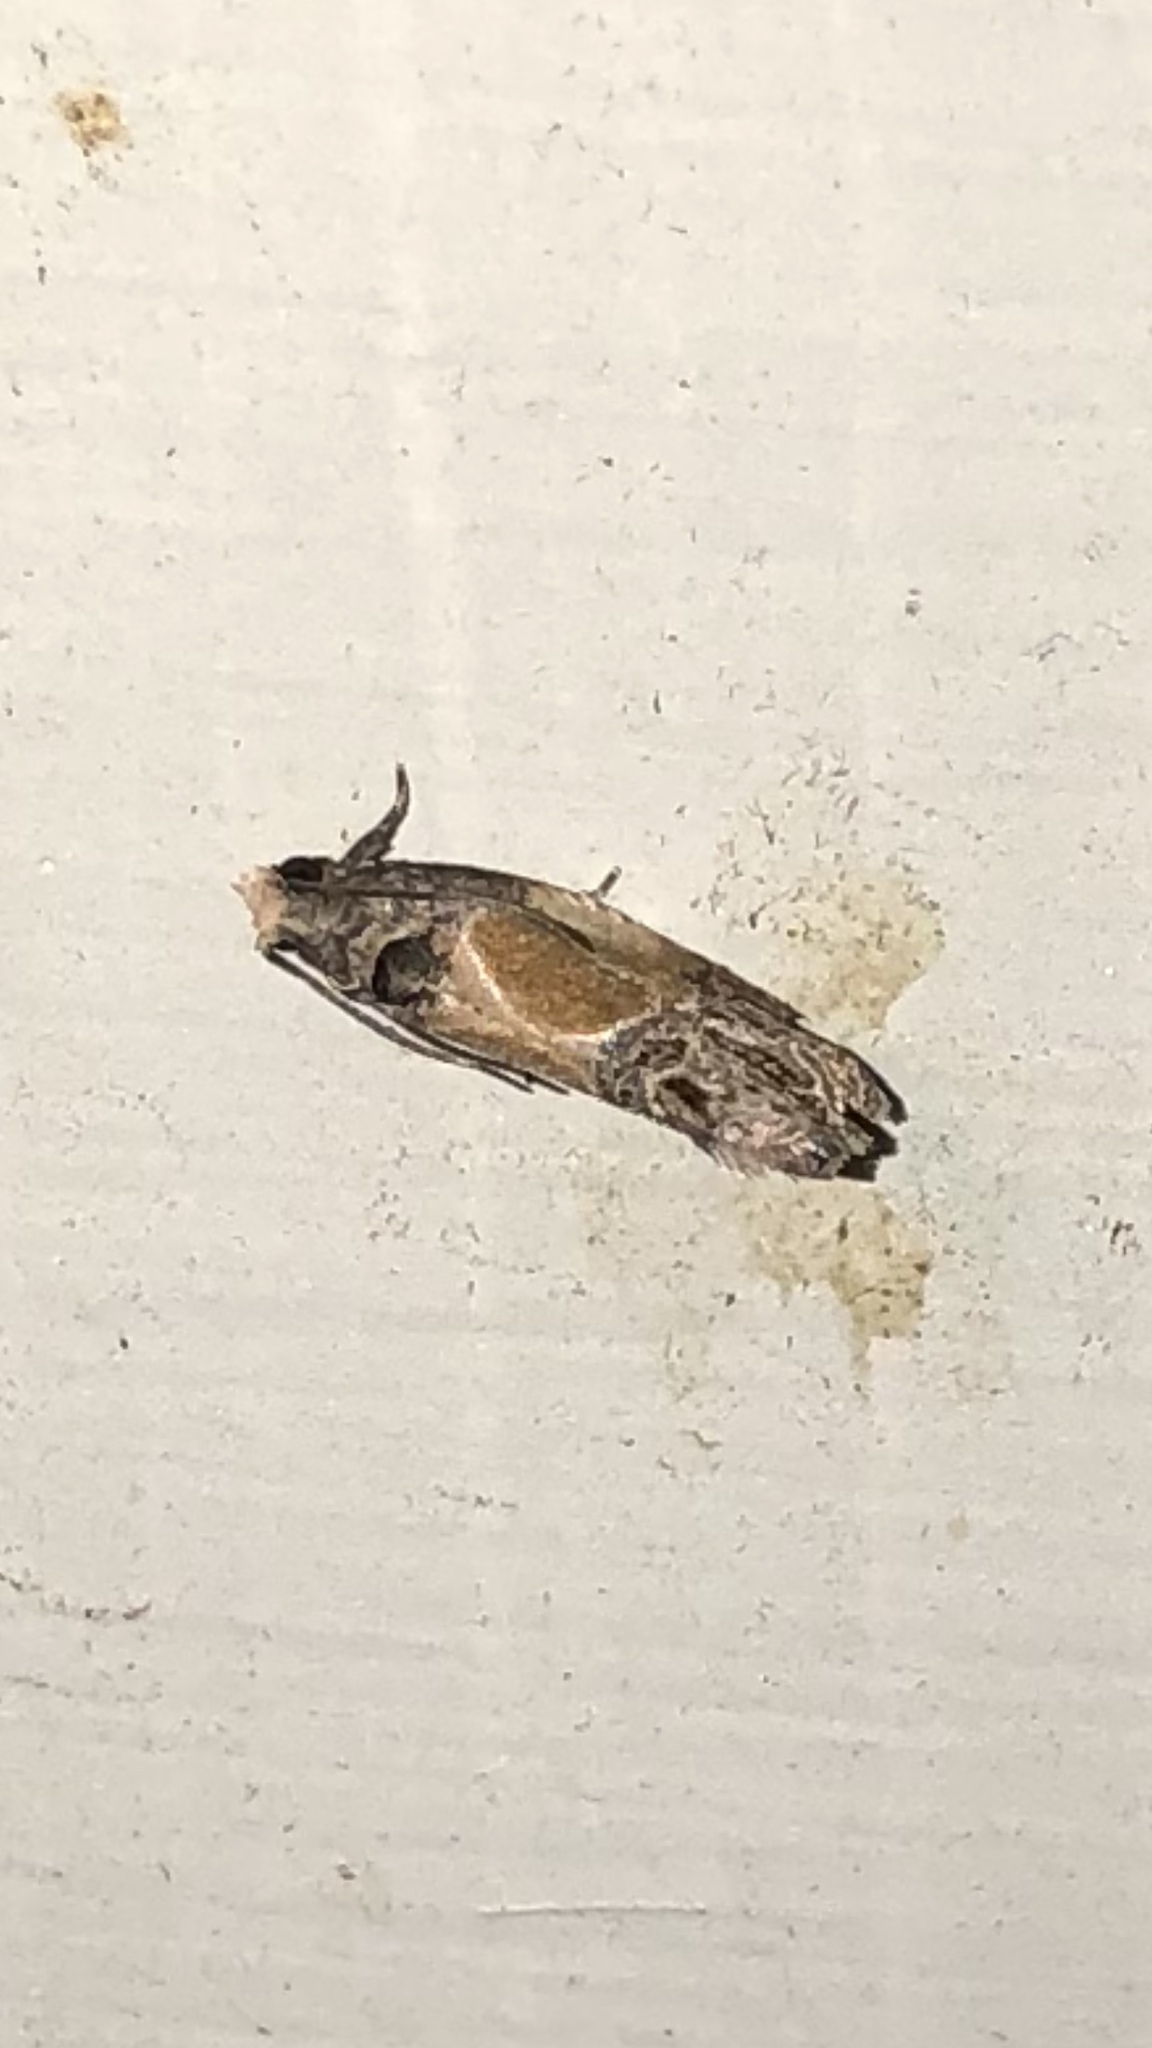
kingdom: Animalia
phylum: Arthropoda
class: Insecta
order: Lepidoptera
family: Tortricidae
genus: Eumarozia
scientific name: Eumarozia malachitana
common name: Sculptured moth
